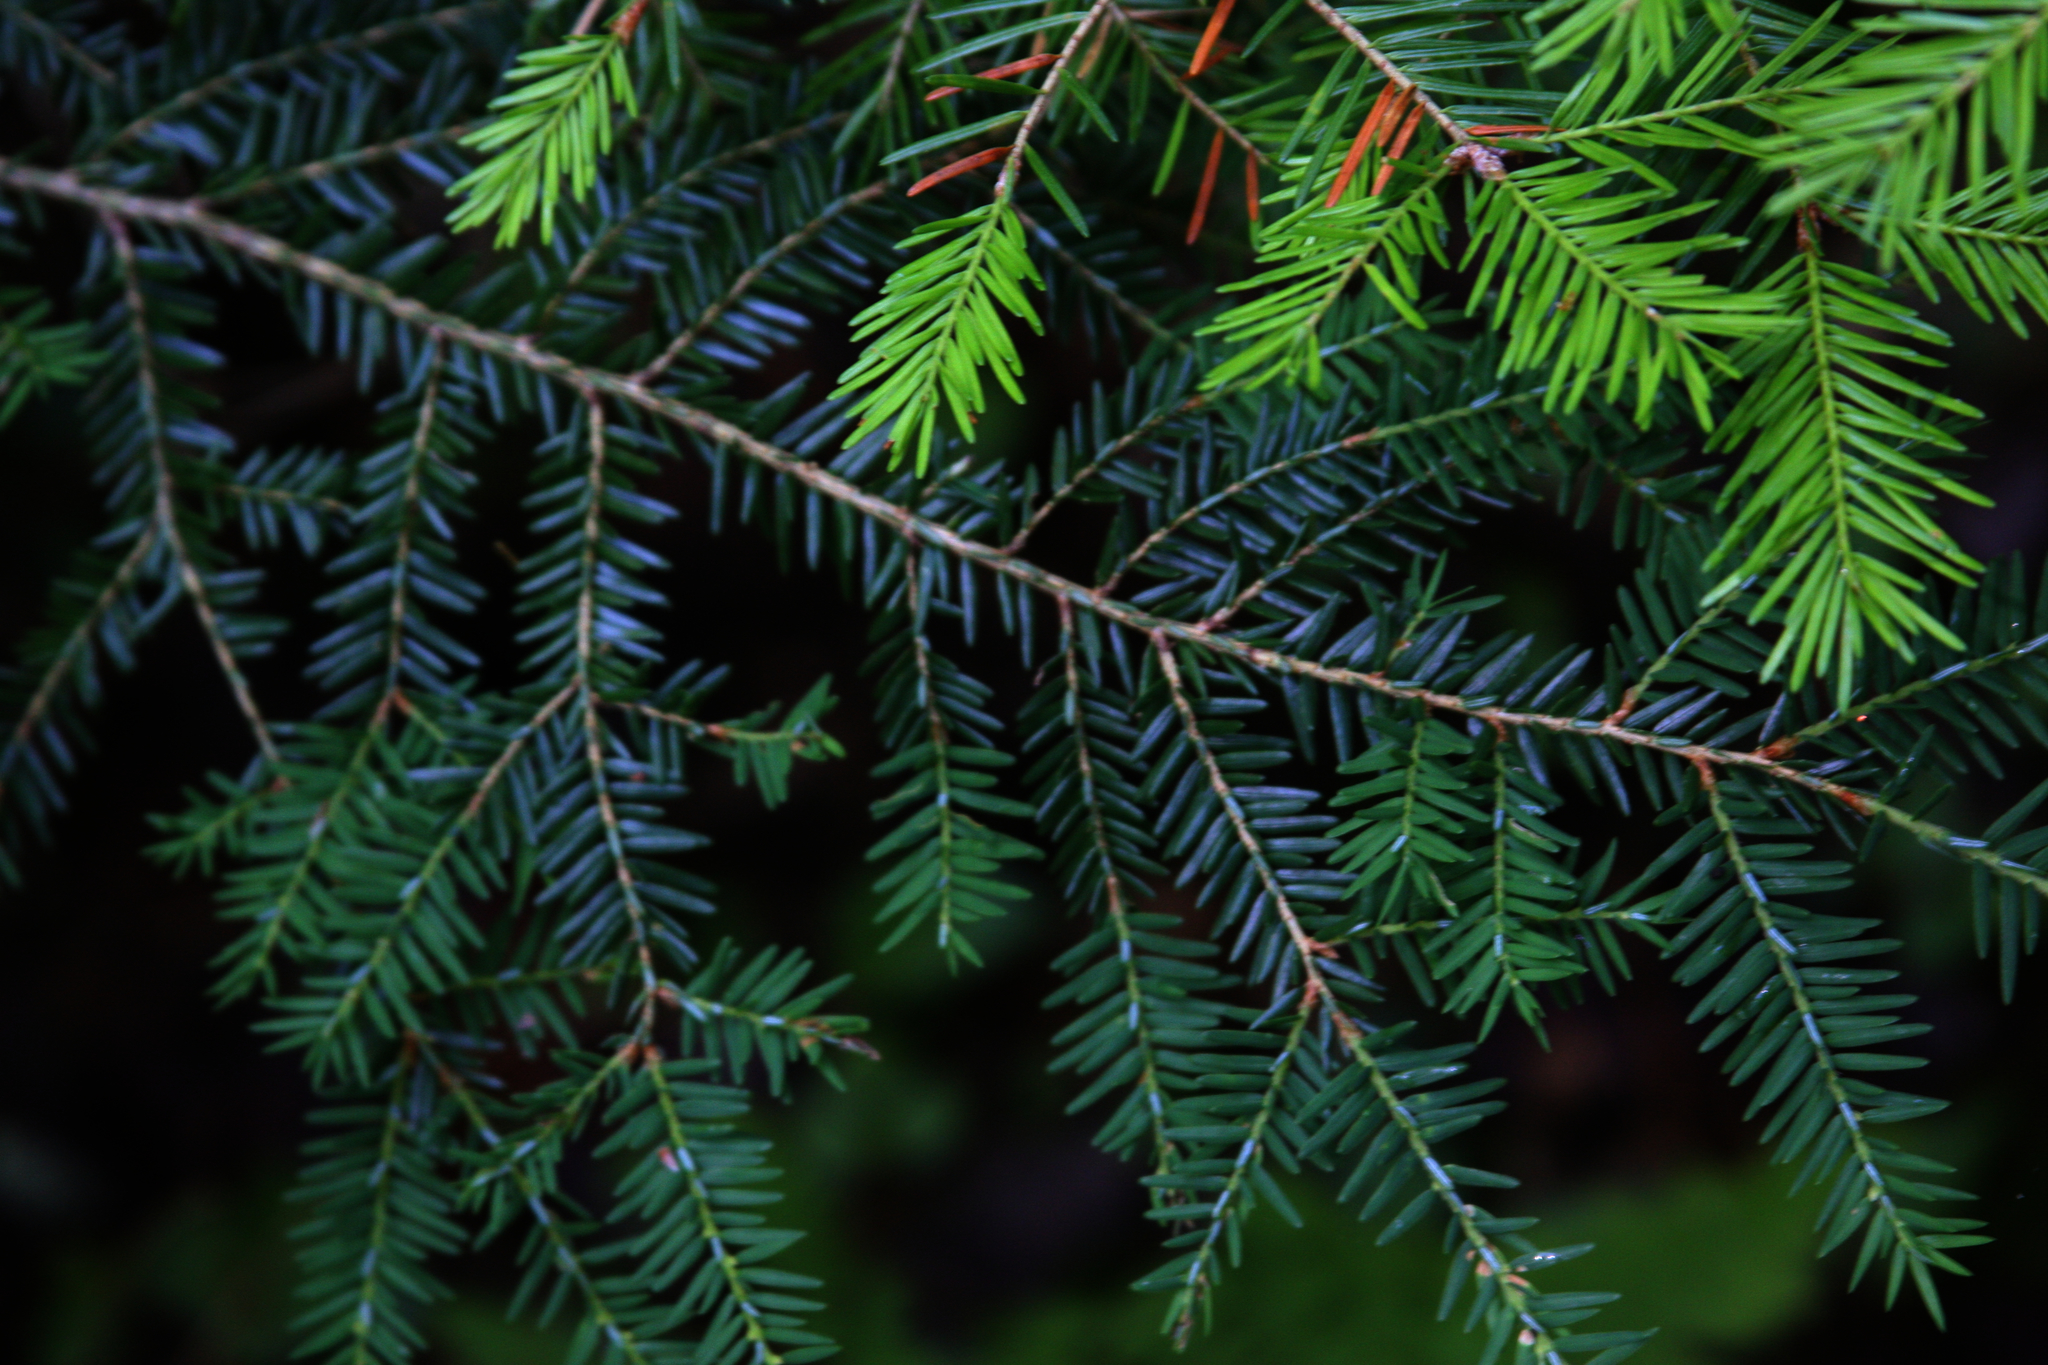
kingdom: Plantae
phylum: Tracheophyta
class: Pinopsida
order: Pinales
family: Pinaceae
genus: Tsuga
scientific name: Tsuga canadensis
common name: Eastern hemlock
